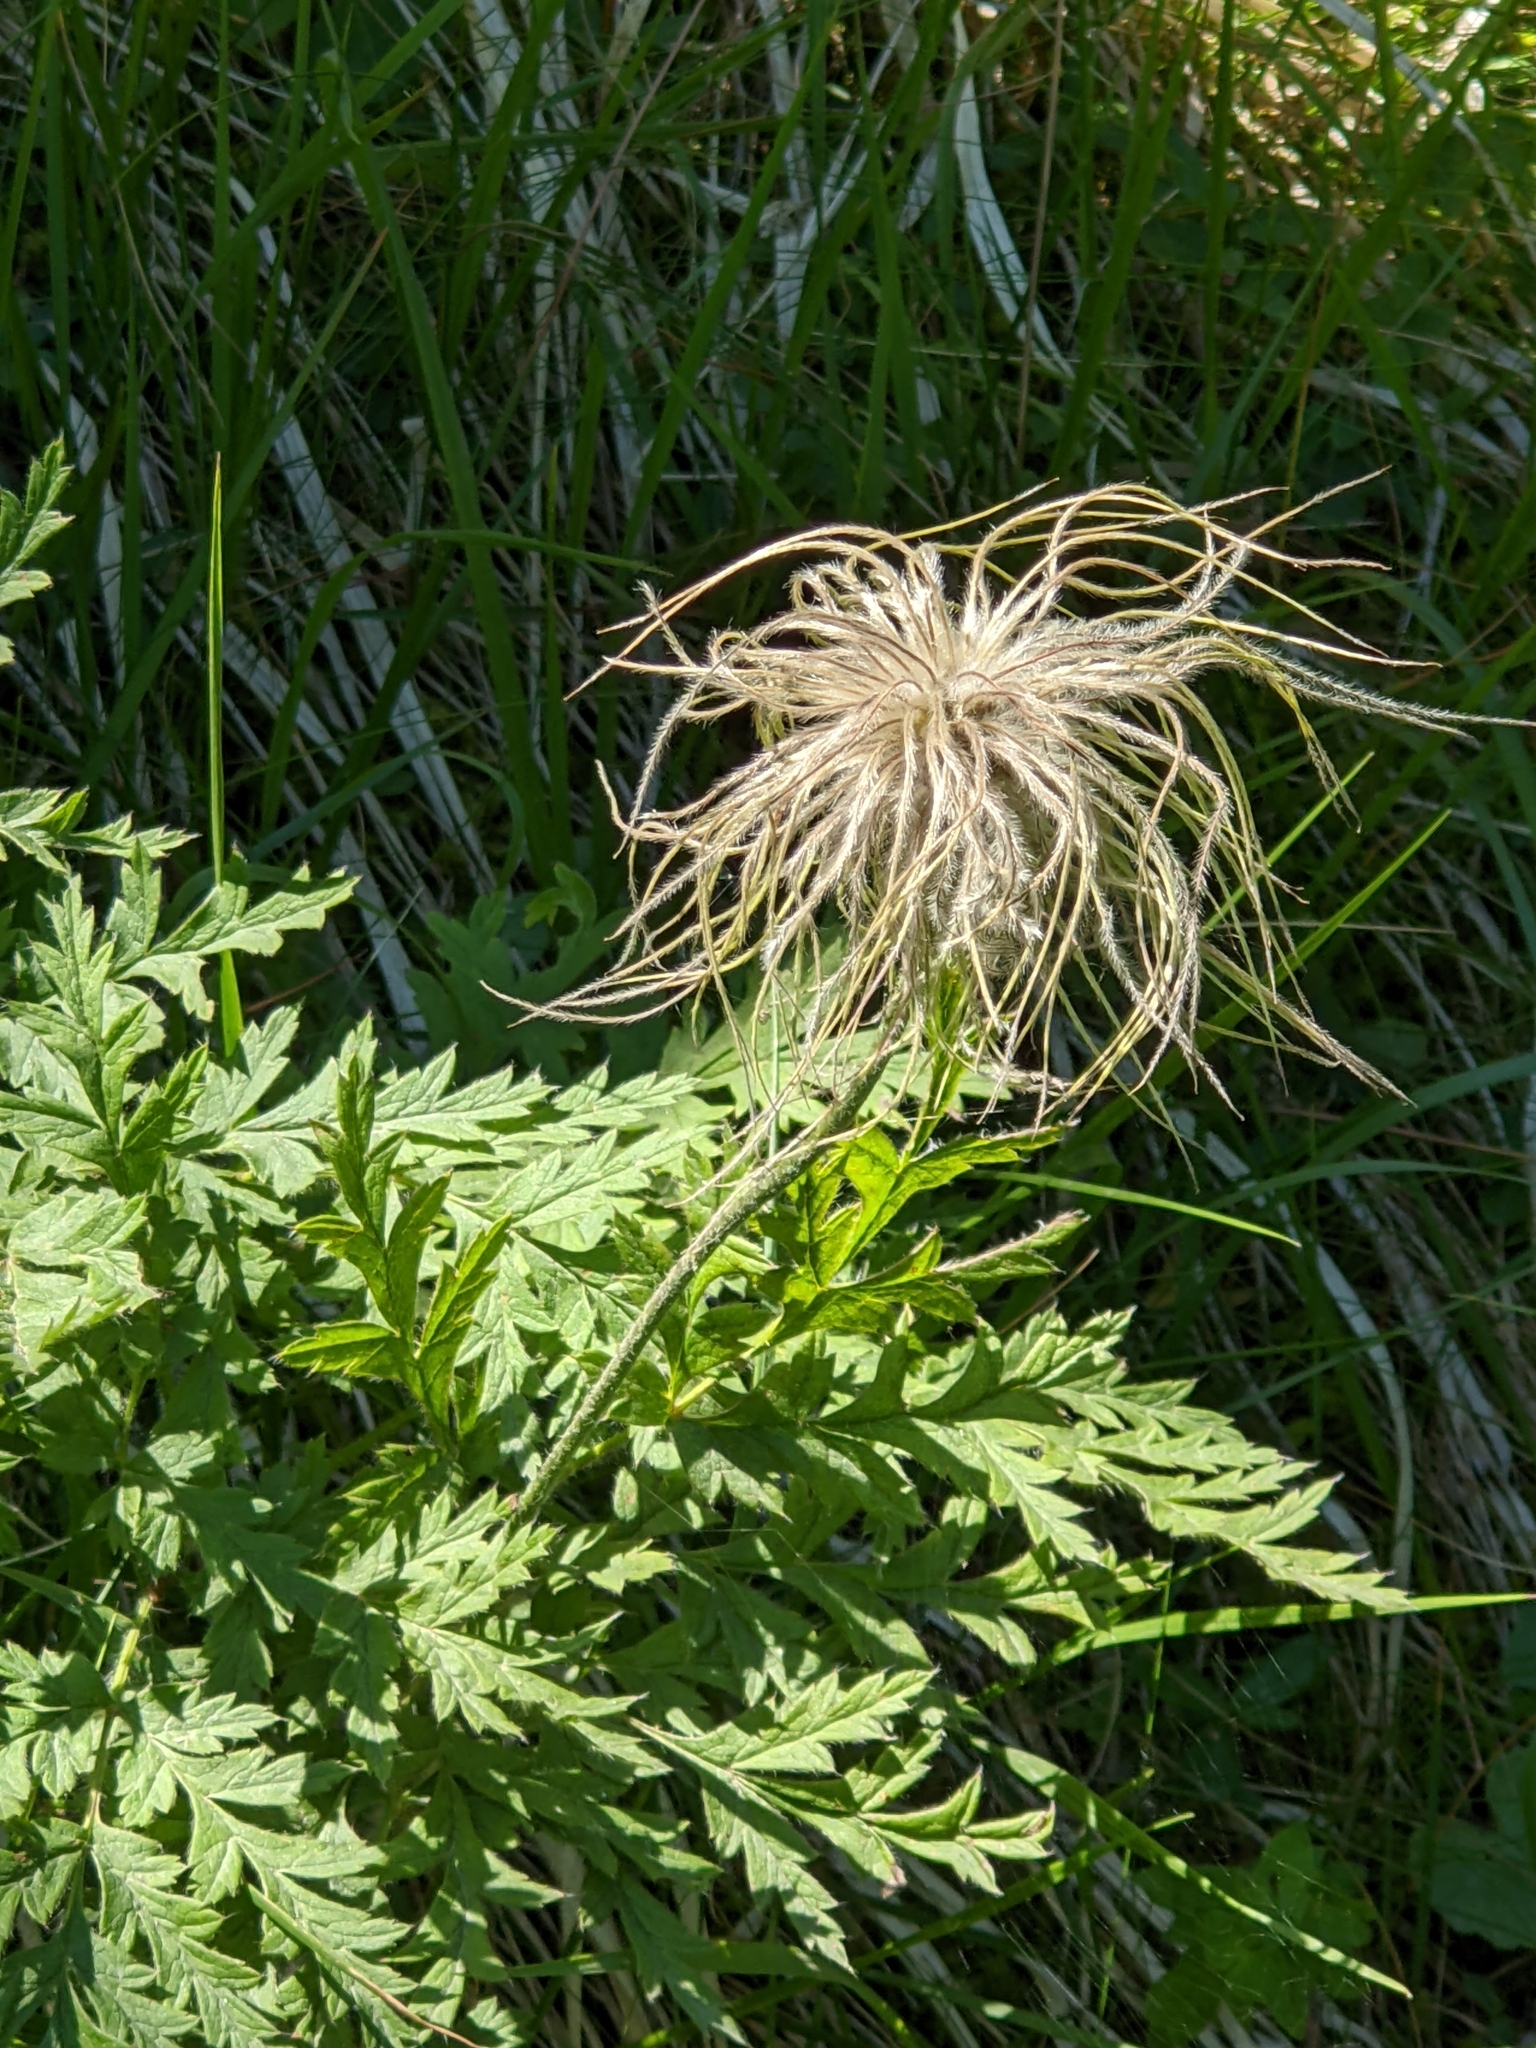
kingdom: Plantae
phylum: Tracheophyta
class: Magnoliopsida
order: Ranunculales
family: Ranunculaceae
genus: Pulsatilla
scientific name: Pulsatilla alpina
